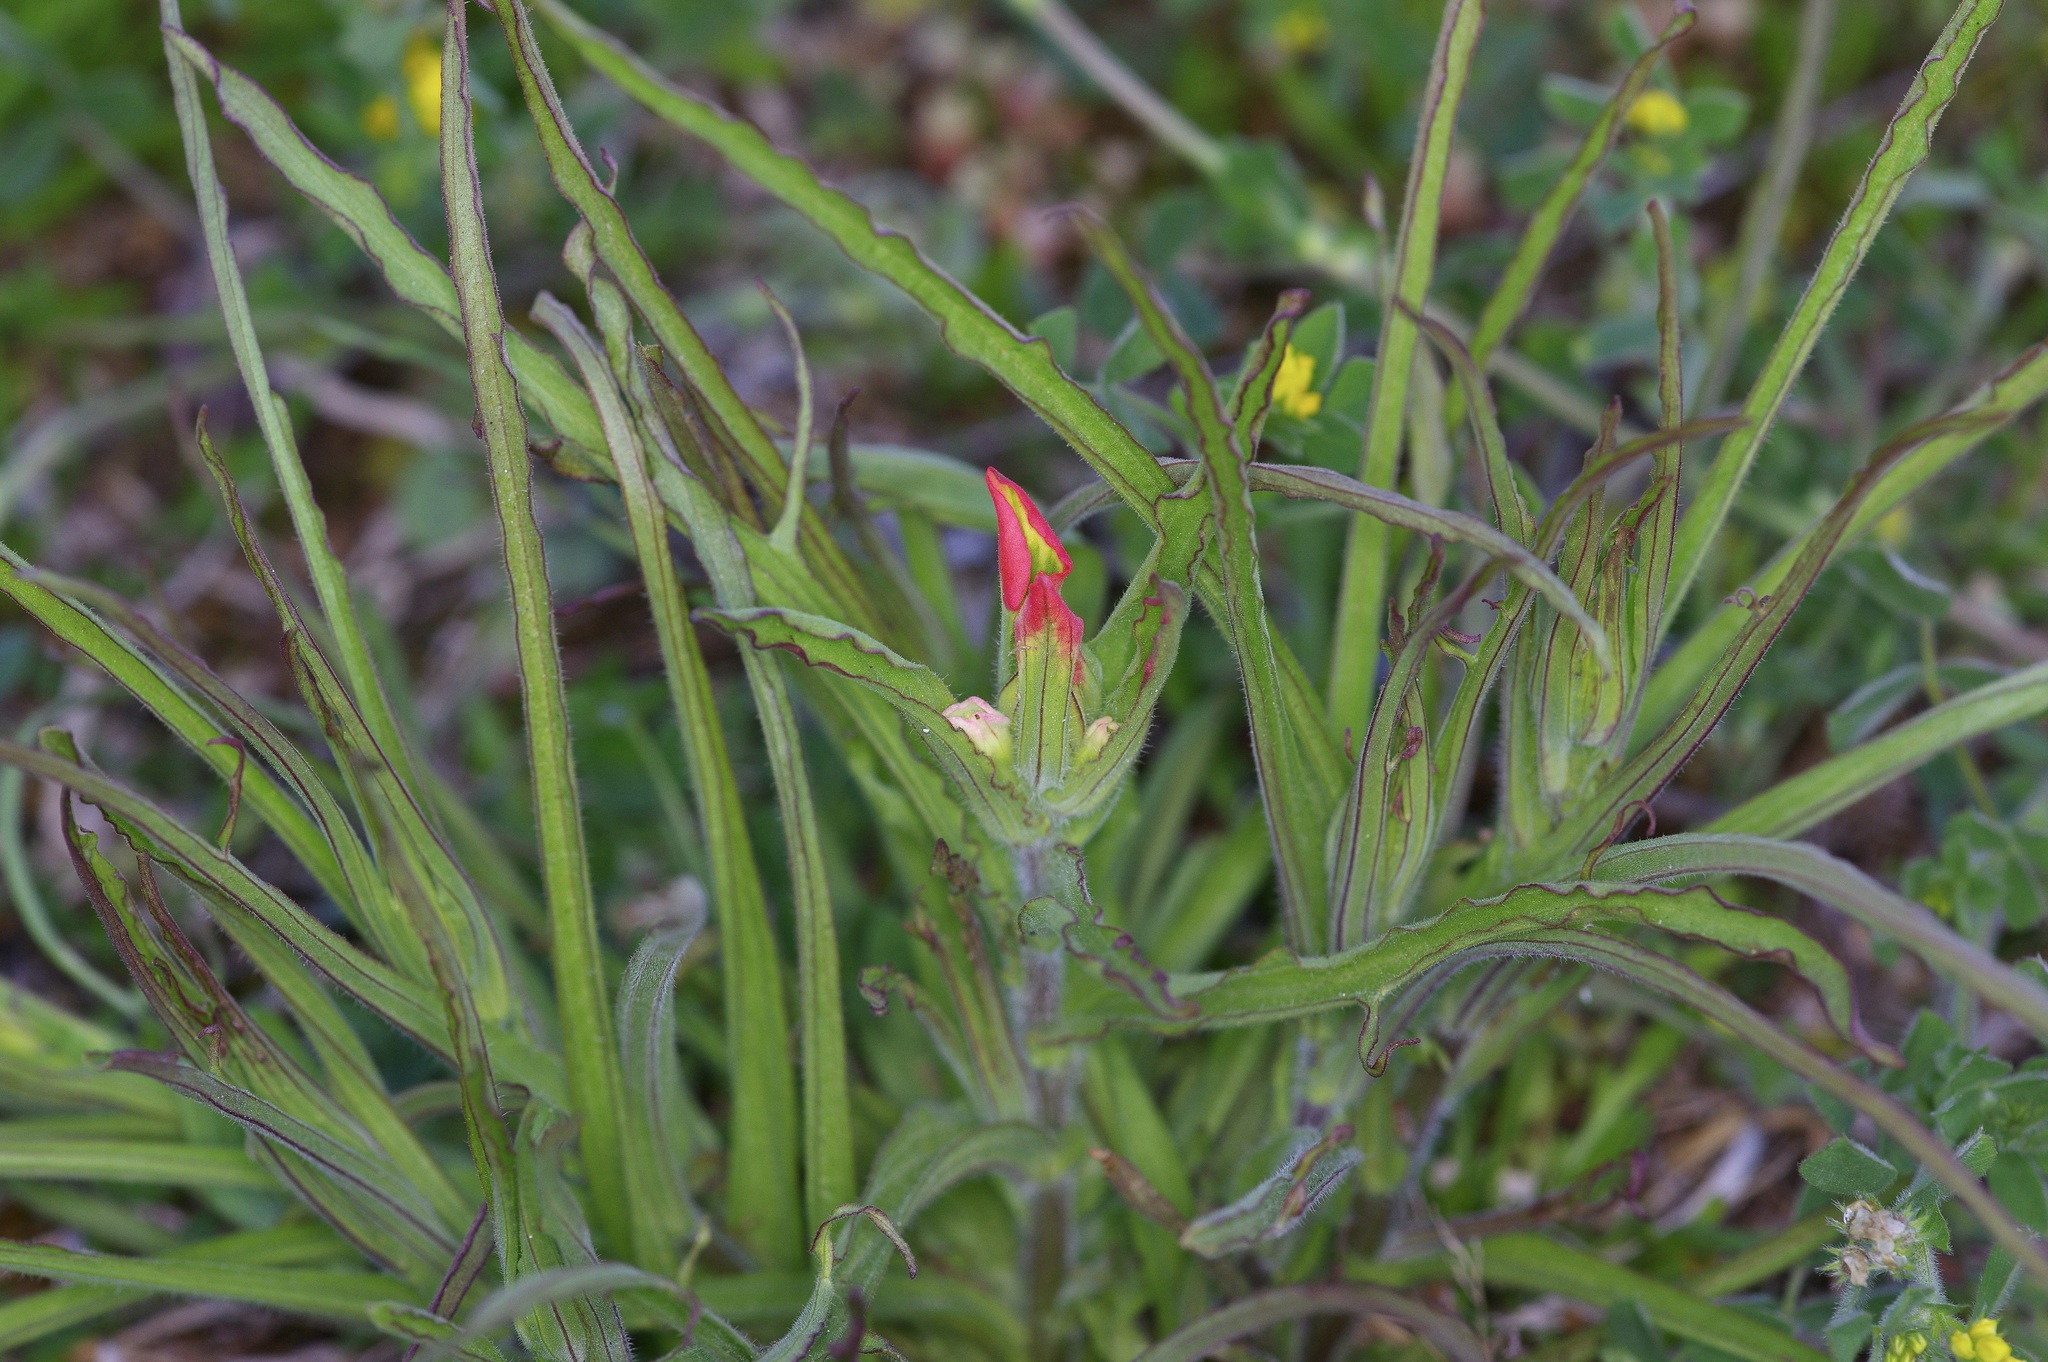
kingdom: Plantae
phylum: Tracheophyta
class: Magnoliopsida
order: Lamiales
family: Orobanchaceae
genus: Castilleja
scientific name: Castilleja indivisa
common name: Texas paintbrush
